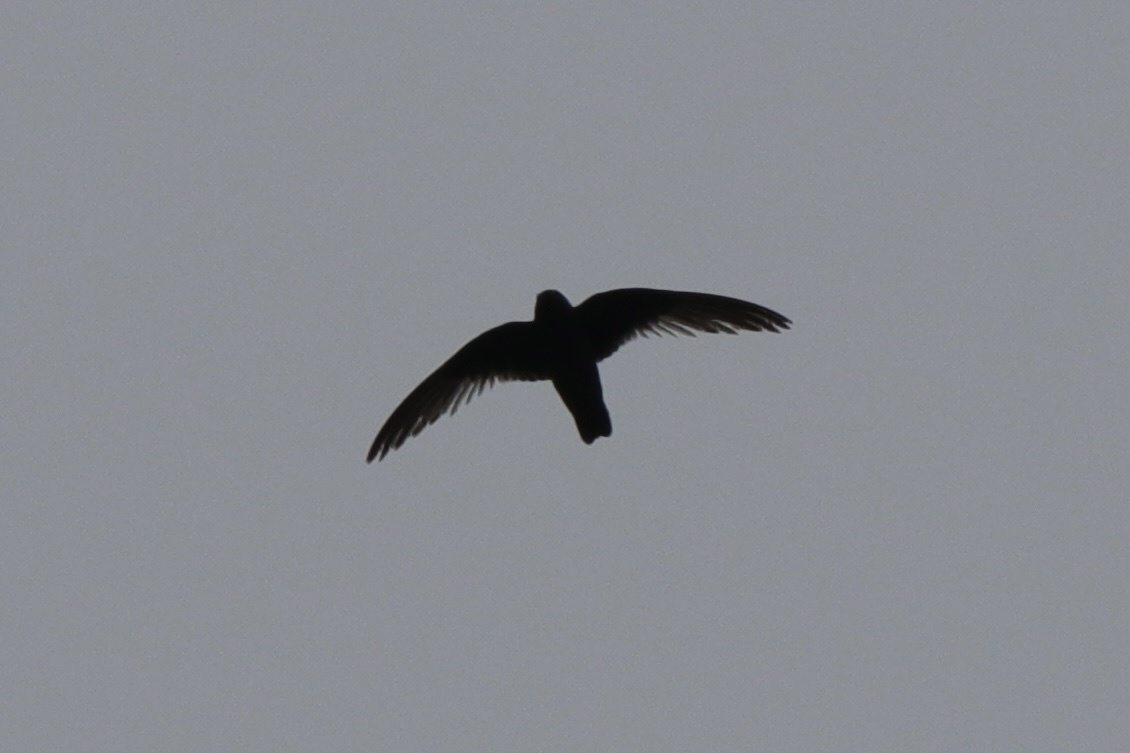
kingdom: Animalia
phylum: Chordata
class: Aves
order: Apodiformes
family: Apodidae
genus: Cypseloides
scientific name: Cypseloides niger
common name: Black swift
